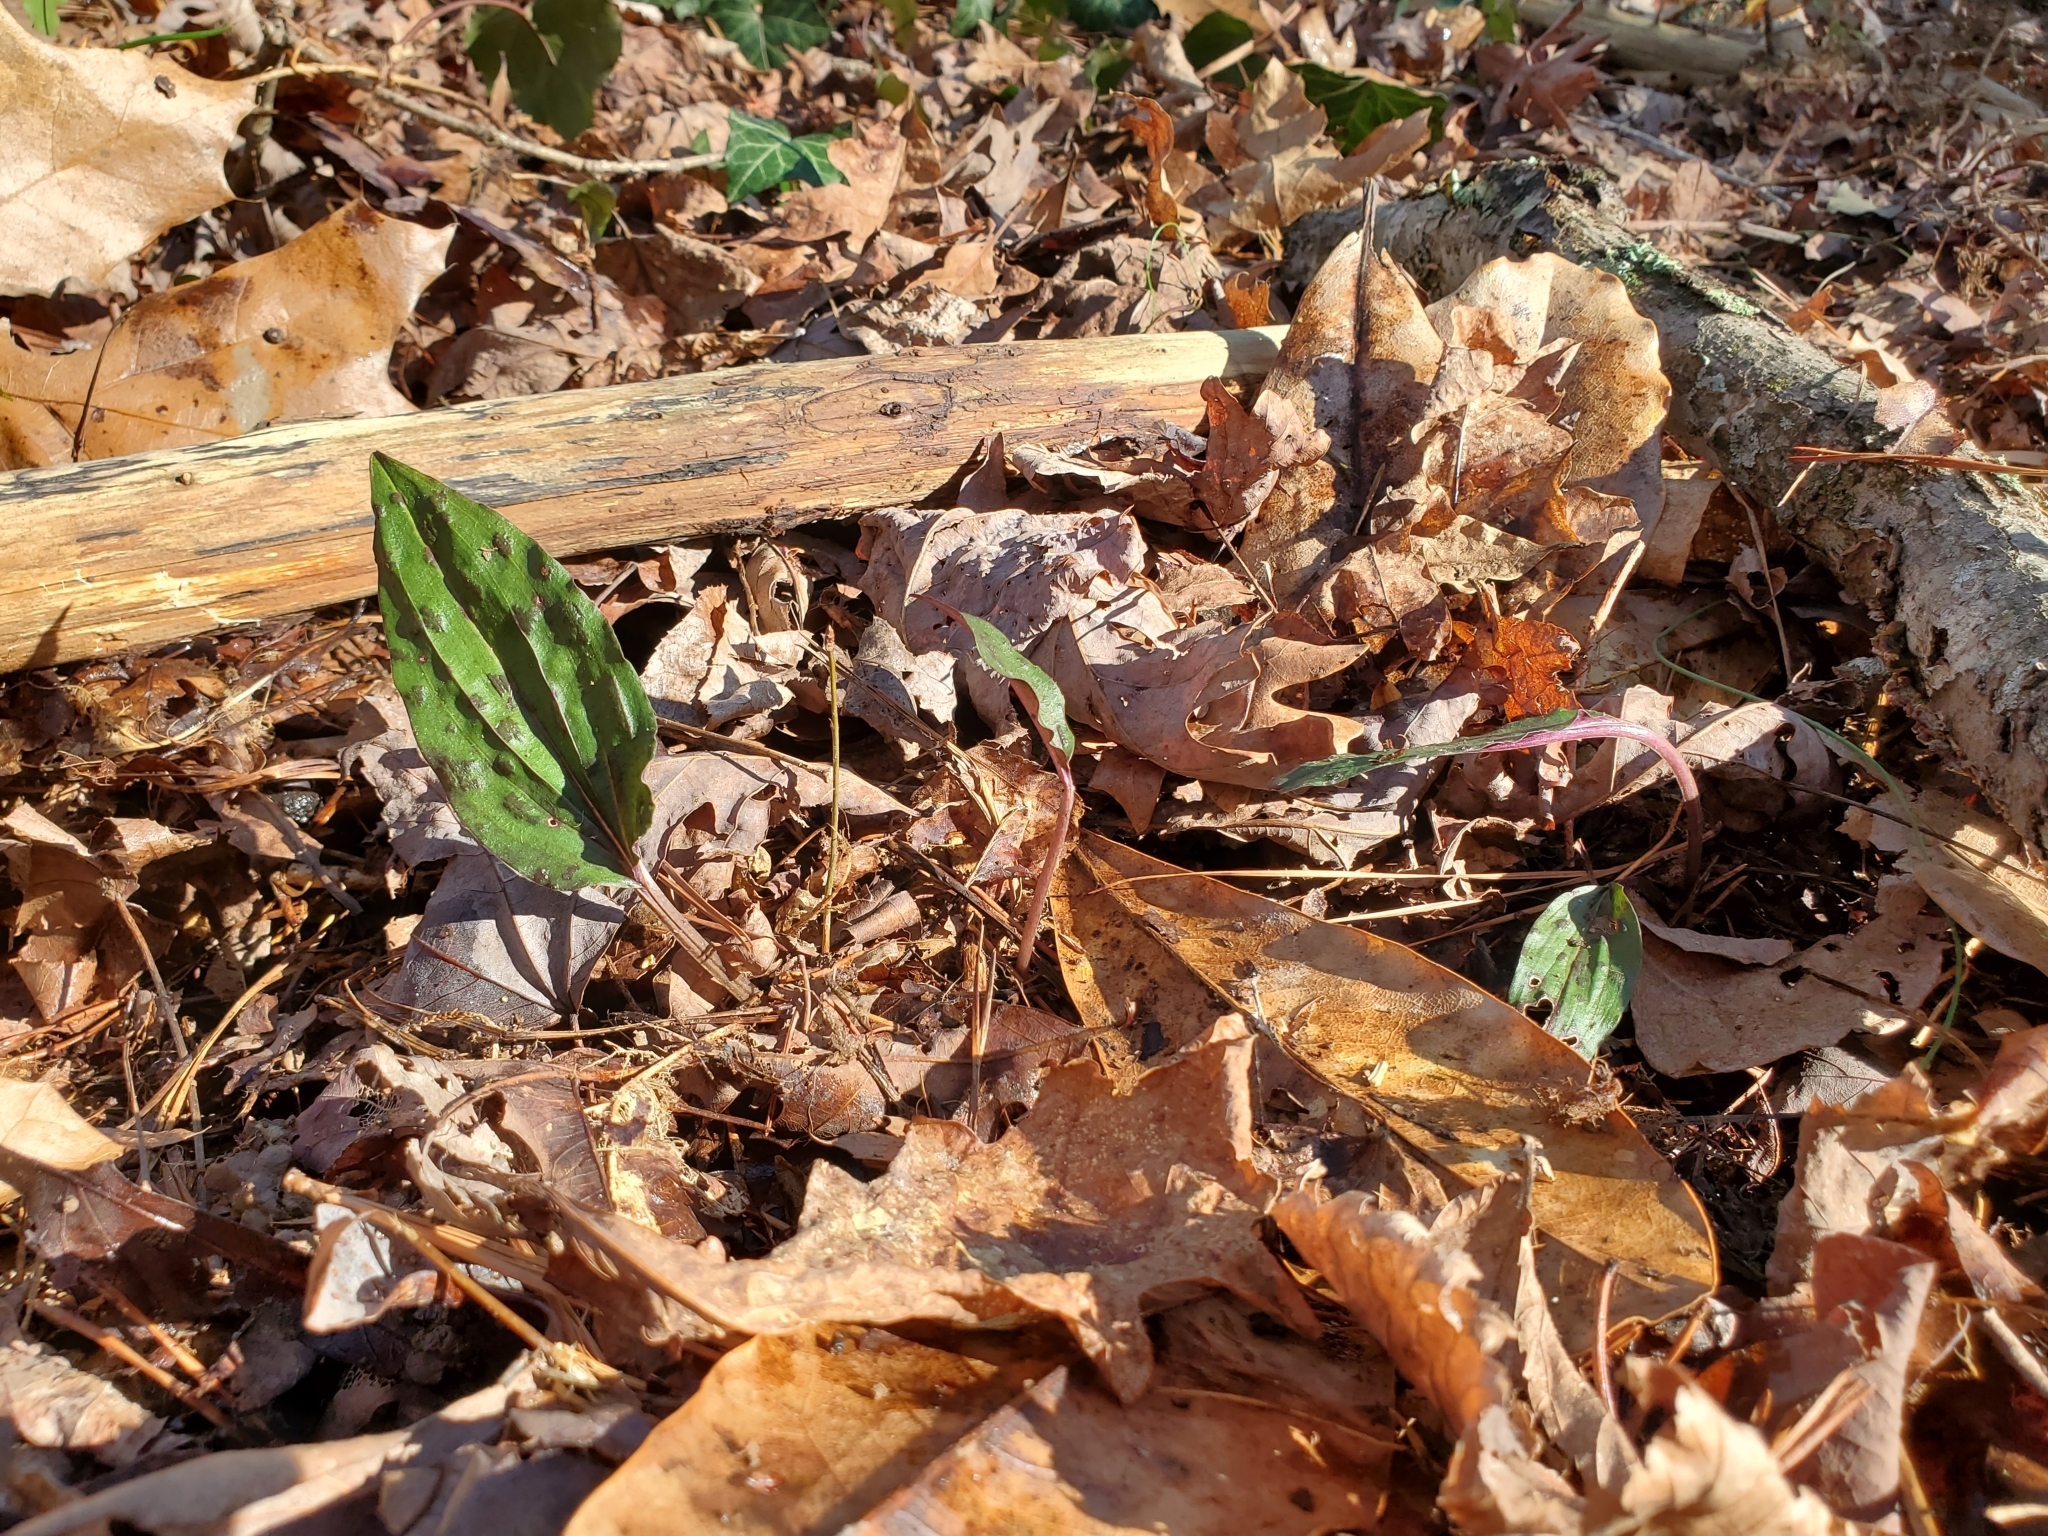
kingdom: Plantae
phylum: Tracheophyta
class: Liliopsida
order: Asparagales
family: Orchidaceae
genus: Tipularia
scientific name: Tipularia discolor
